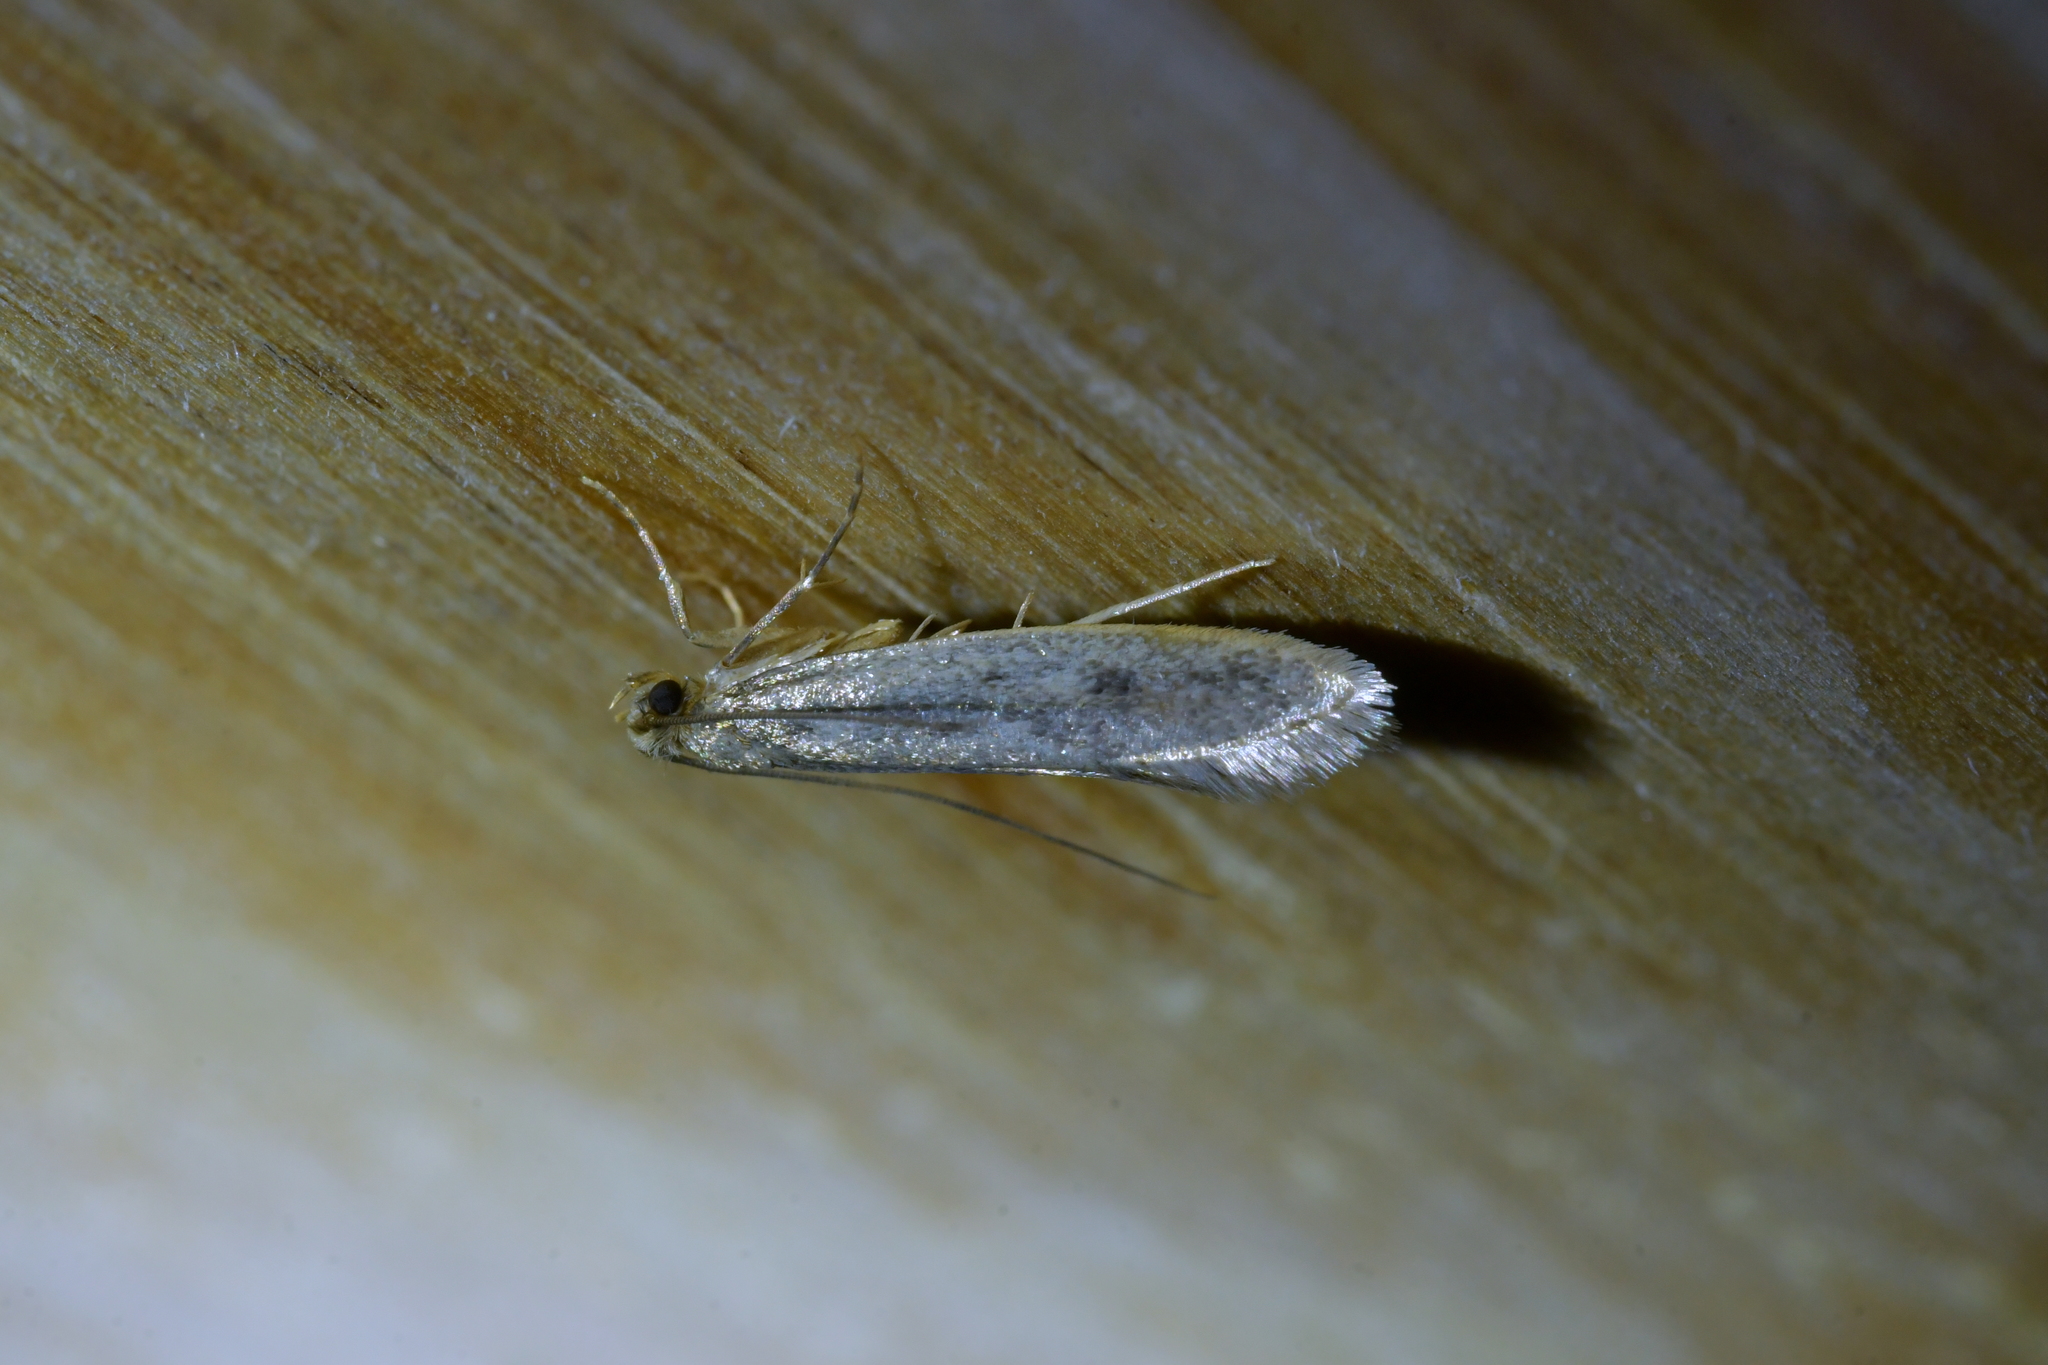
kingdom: Animalia
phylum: Arthropoda
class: Insecta
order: Lepidoptera
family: Tineidae
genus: Tinea
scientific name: Tinea pallescentella
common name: Large pale clothes moth
